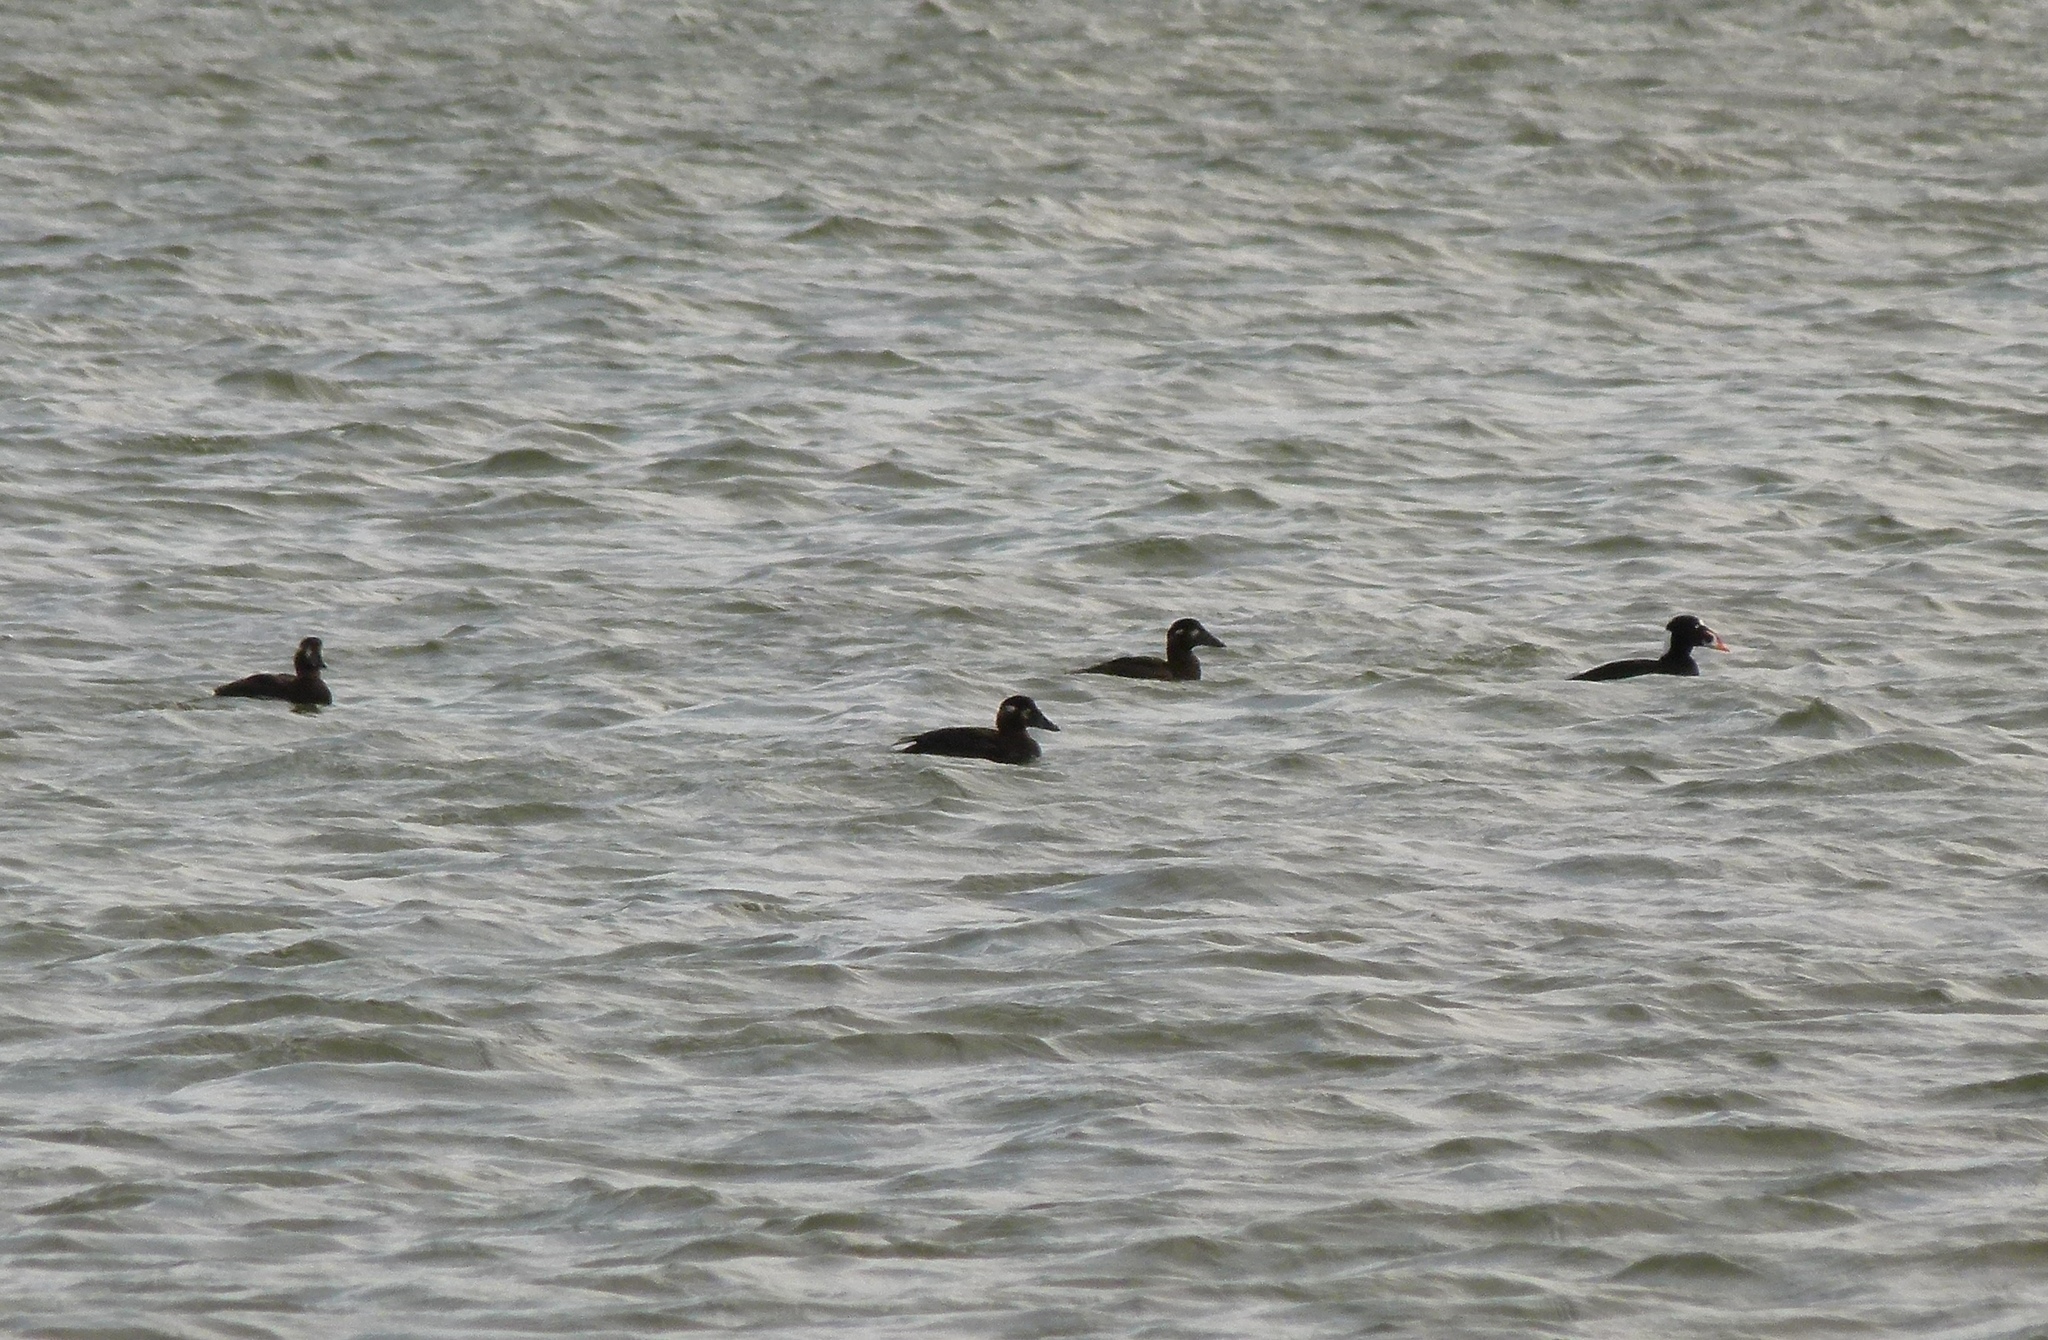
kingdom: Animalia
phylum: Chordata
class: Aves
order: Anseriformes
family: Anatidae
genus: Melanitta
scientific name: Melanitta perspicillata
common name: Surf scoter
